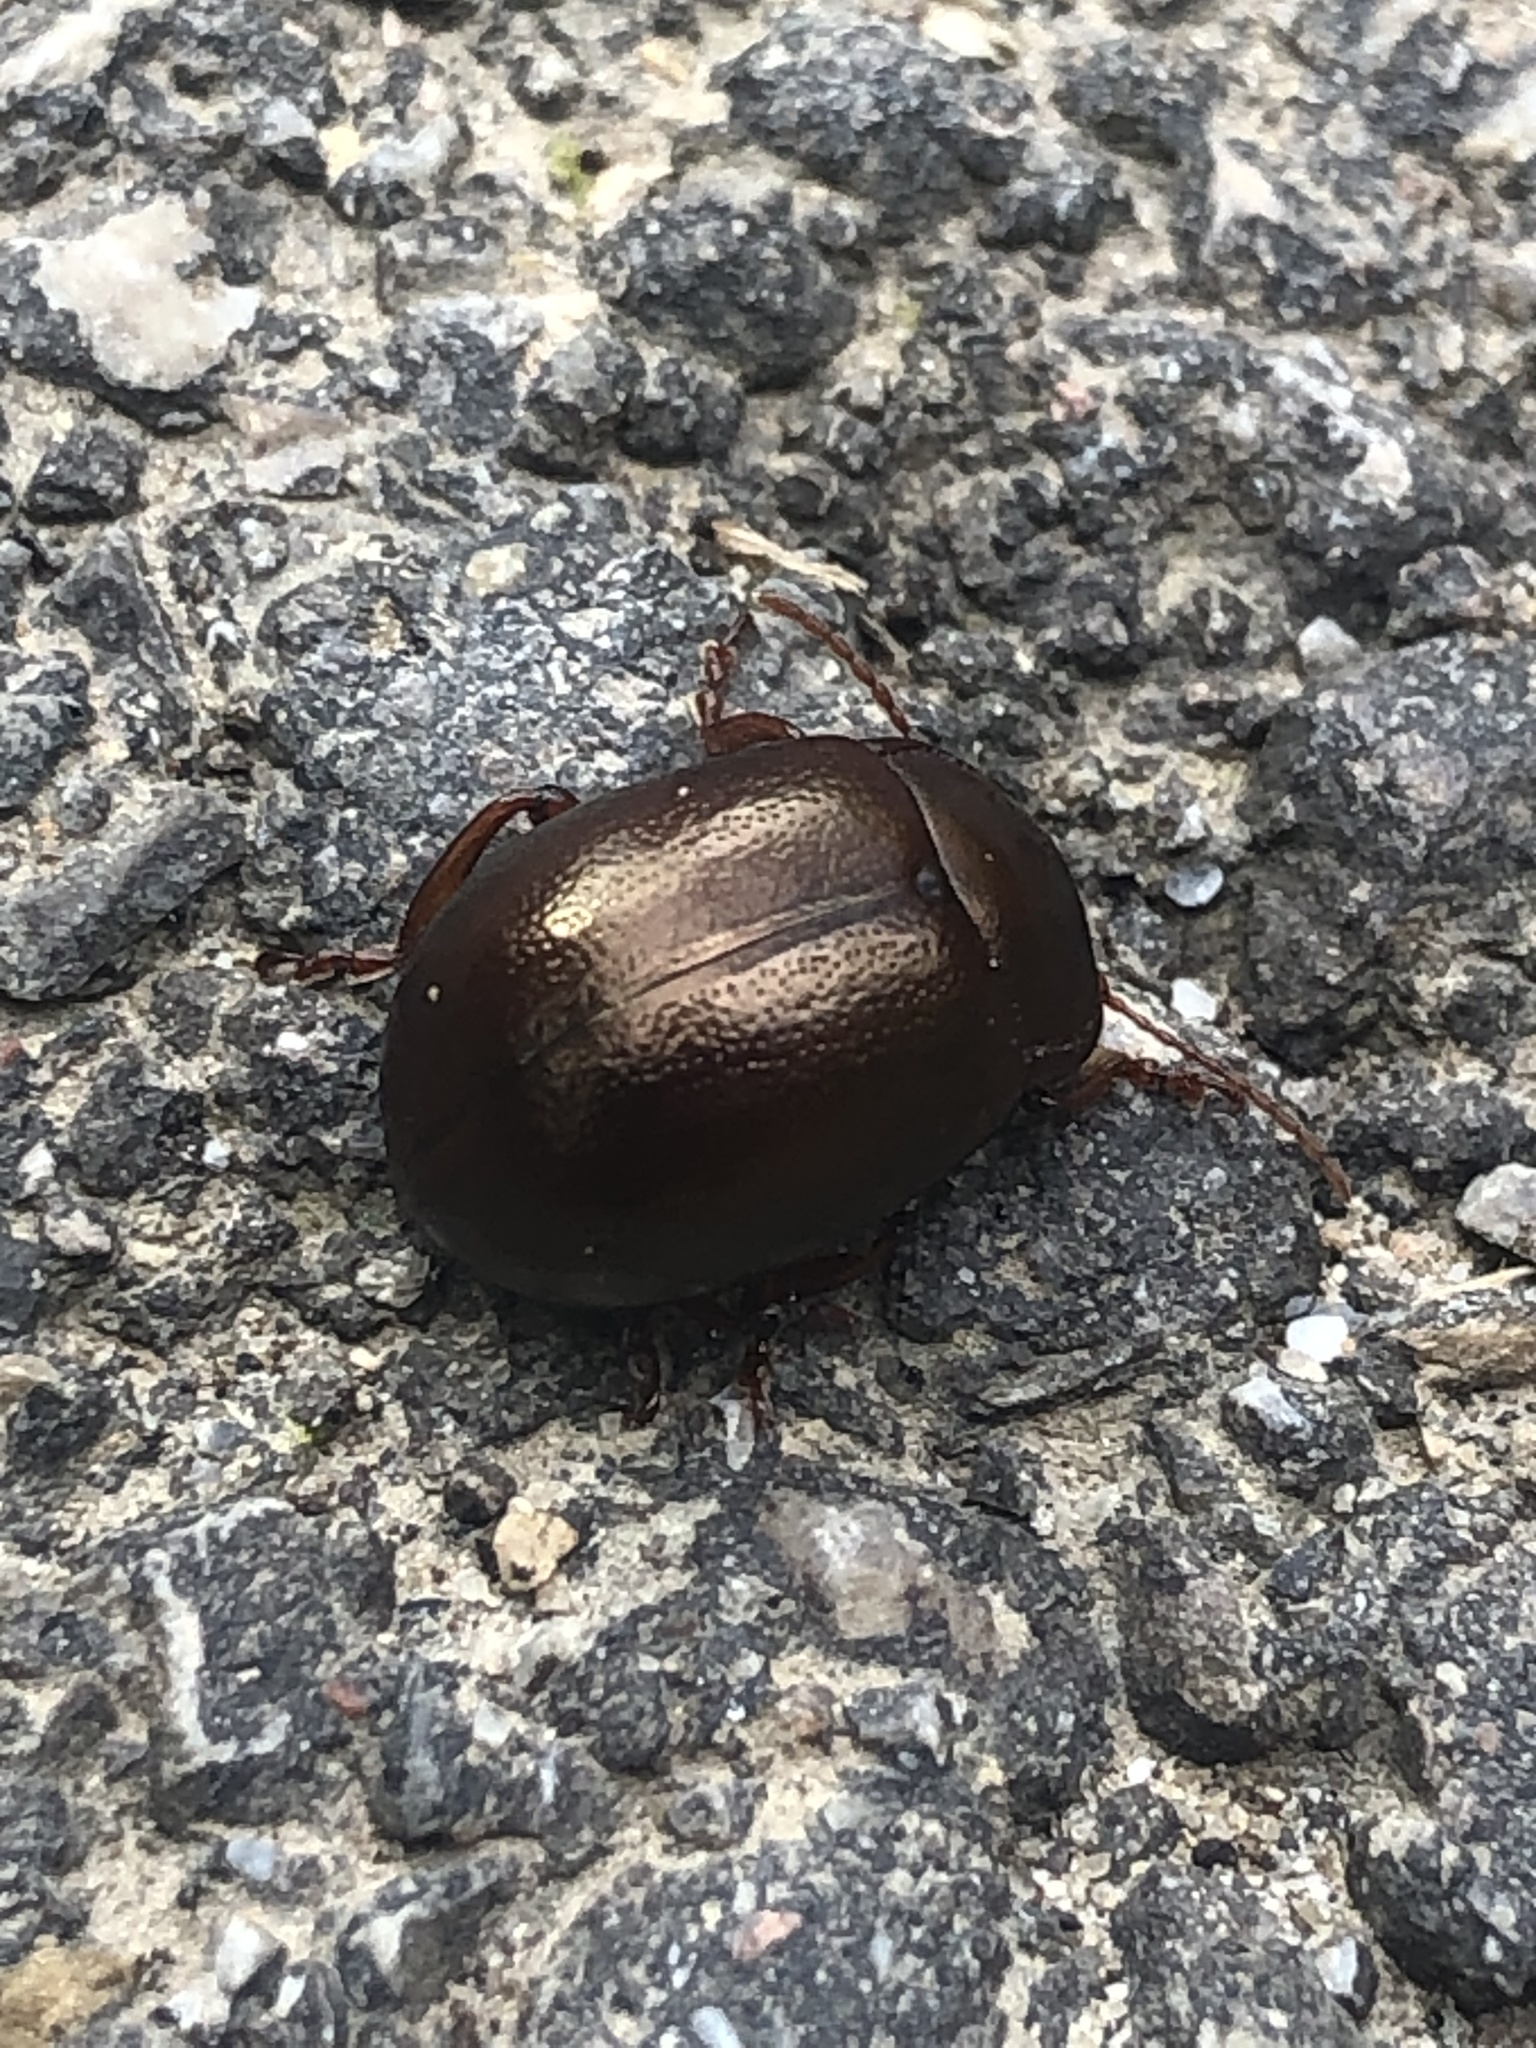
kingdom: Animalia
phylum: Arthropoda
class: Insecta
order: Coleoptera
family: Chrysomelidae
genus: Chrysolina
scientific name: Chrysolina staphylaea
